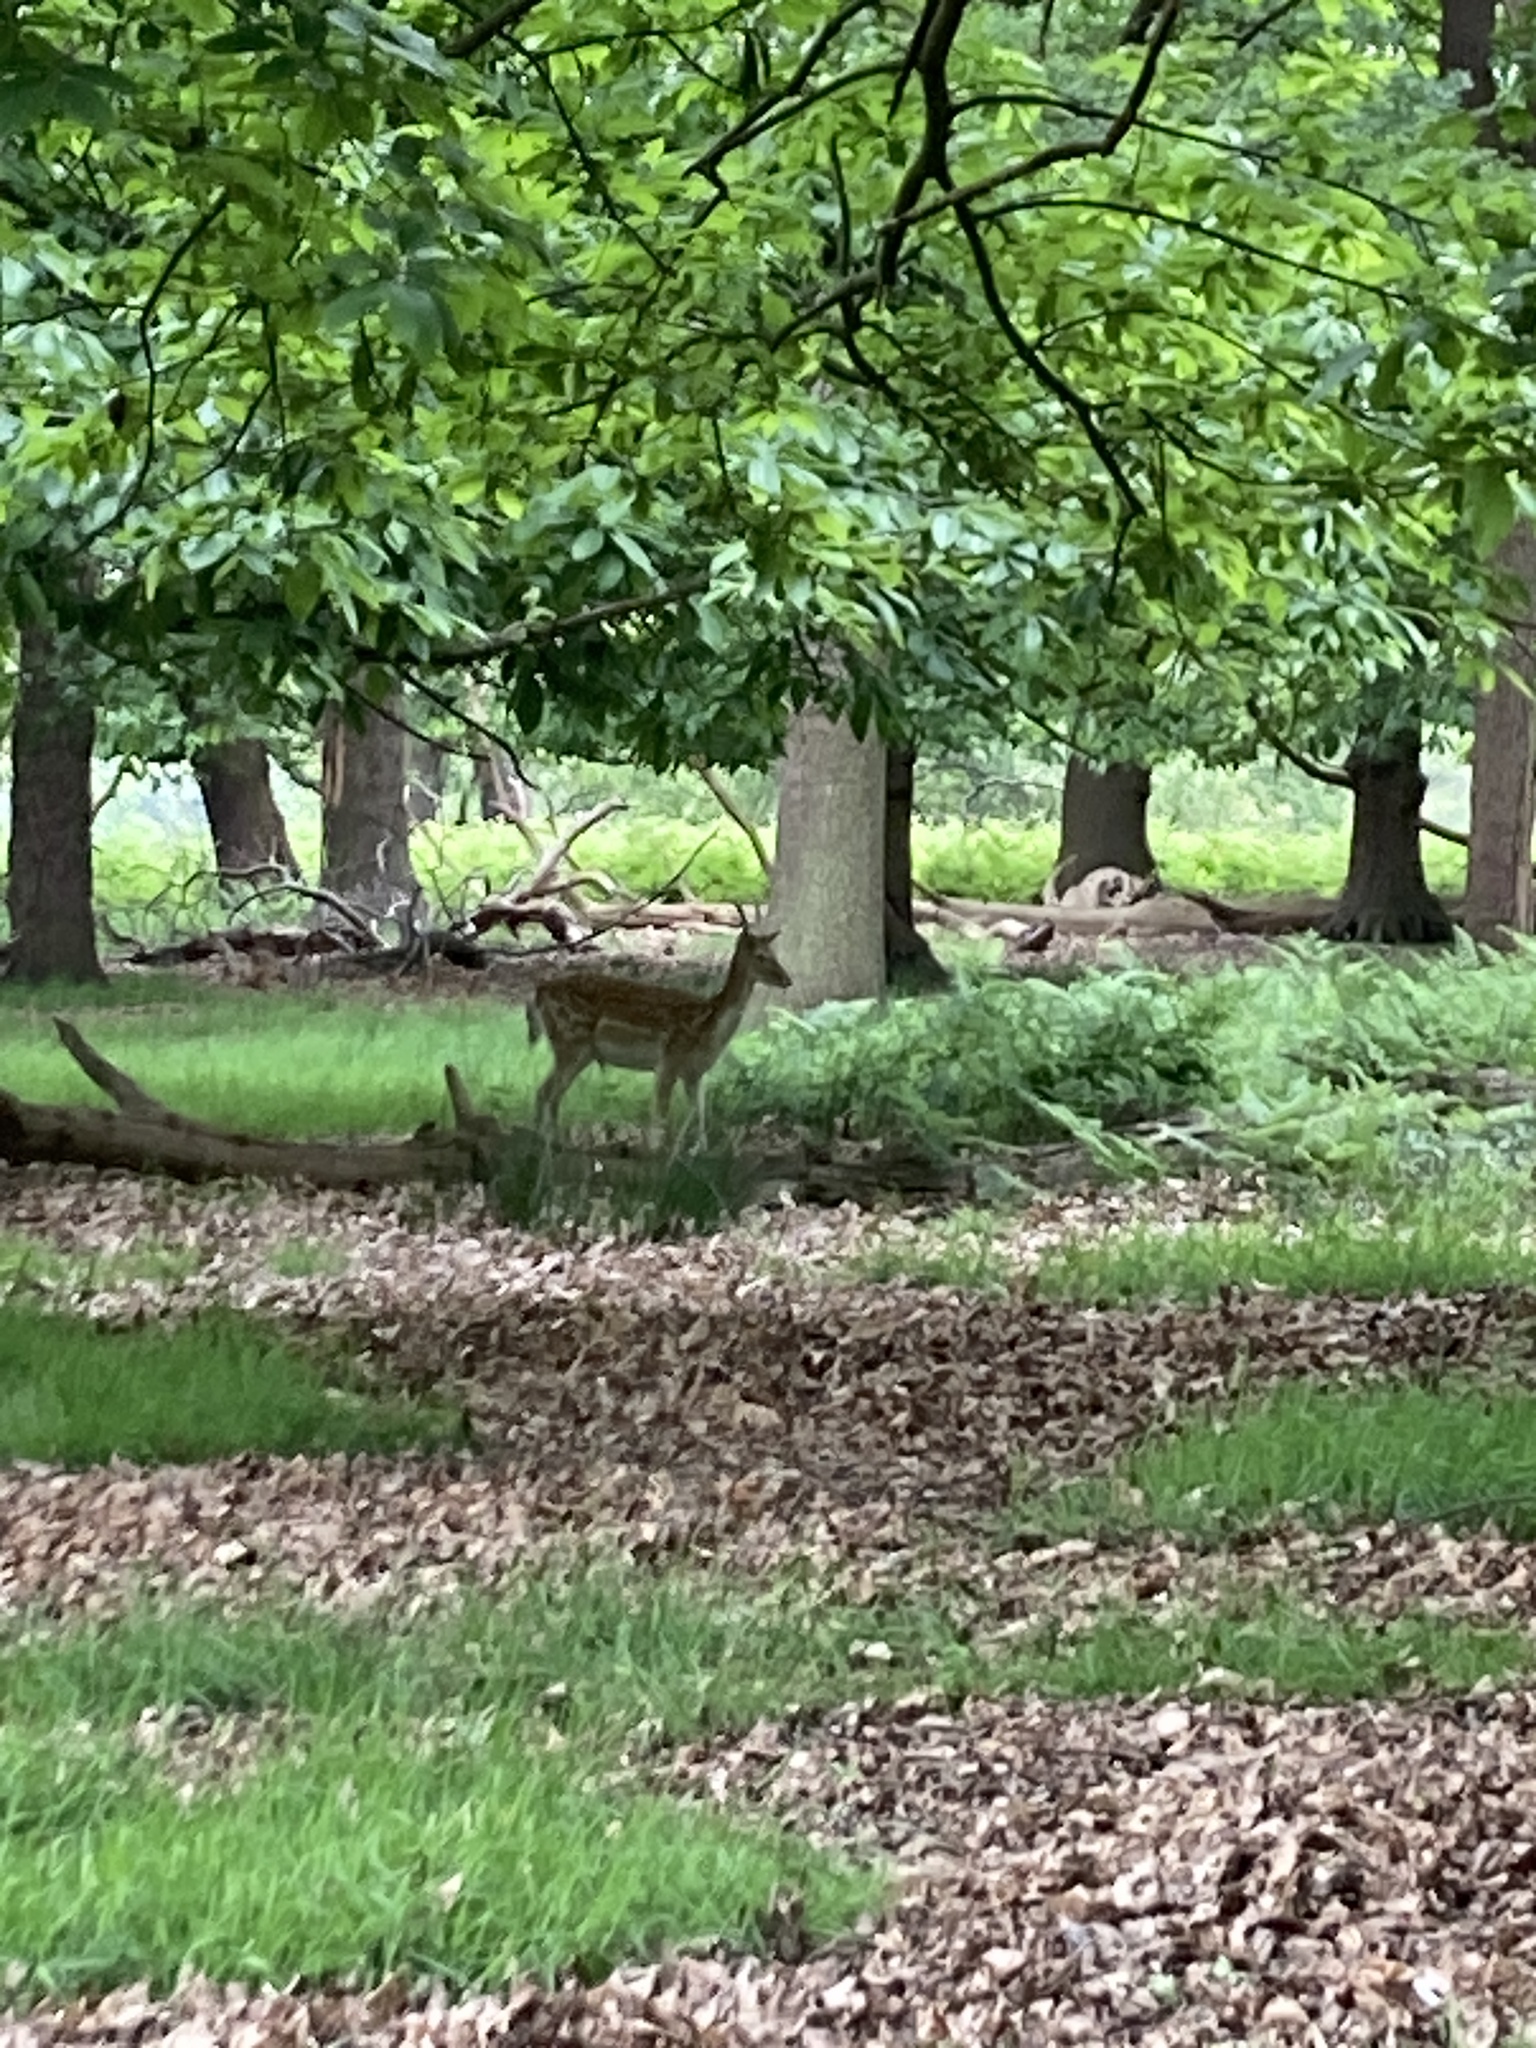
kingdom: Animalia
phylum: Chordata
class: Mammalia
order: Artiodactyla
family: Cervidae
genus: Dama
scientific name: Dama dama
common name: Fallow deer
